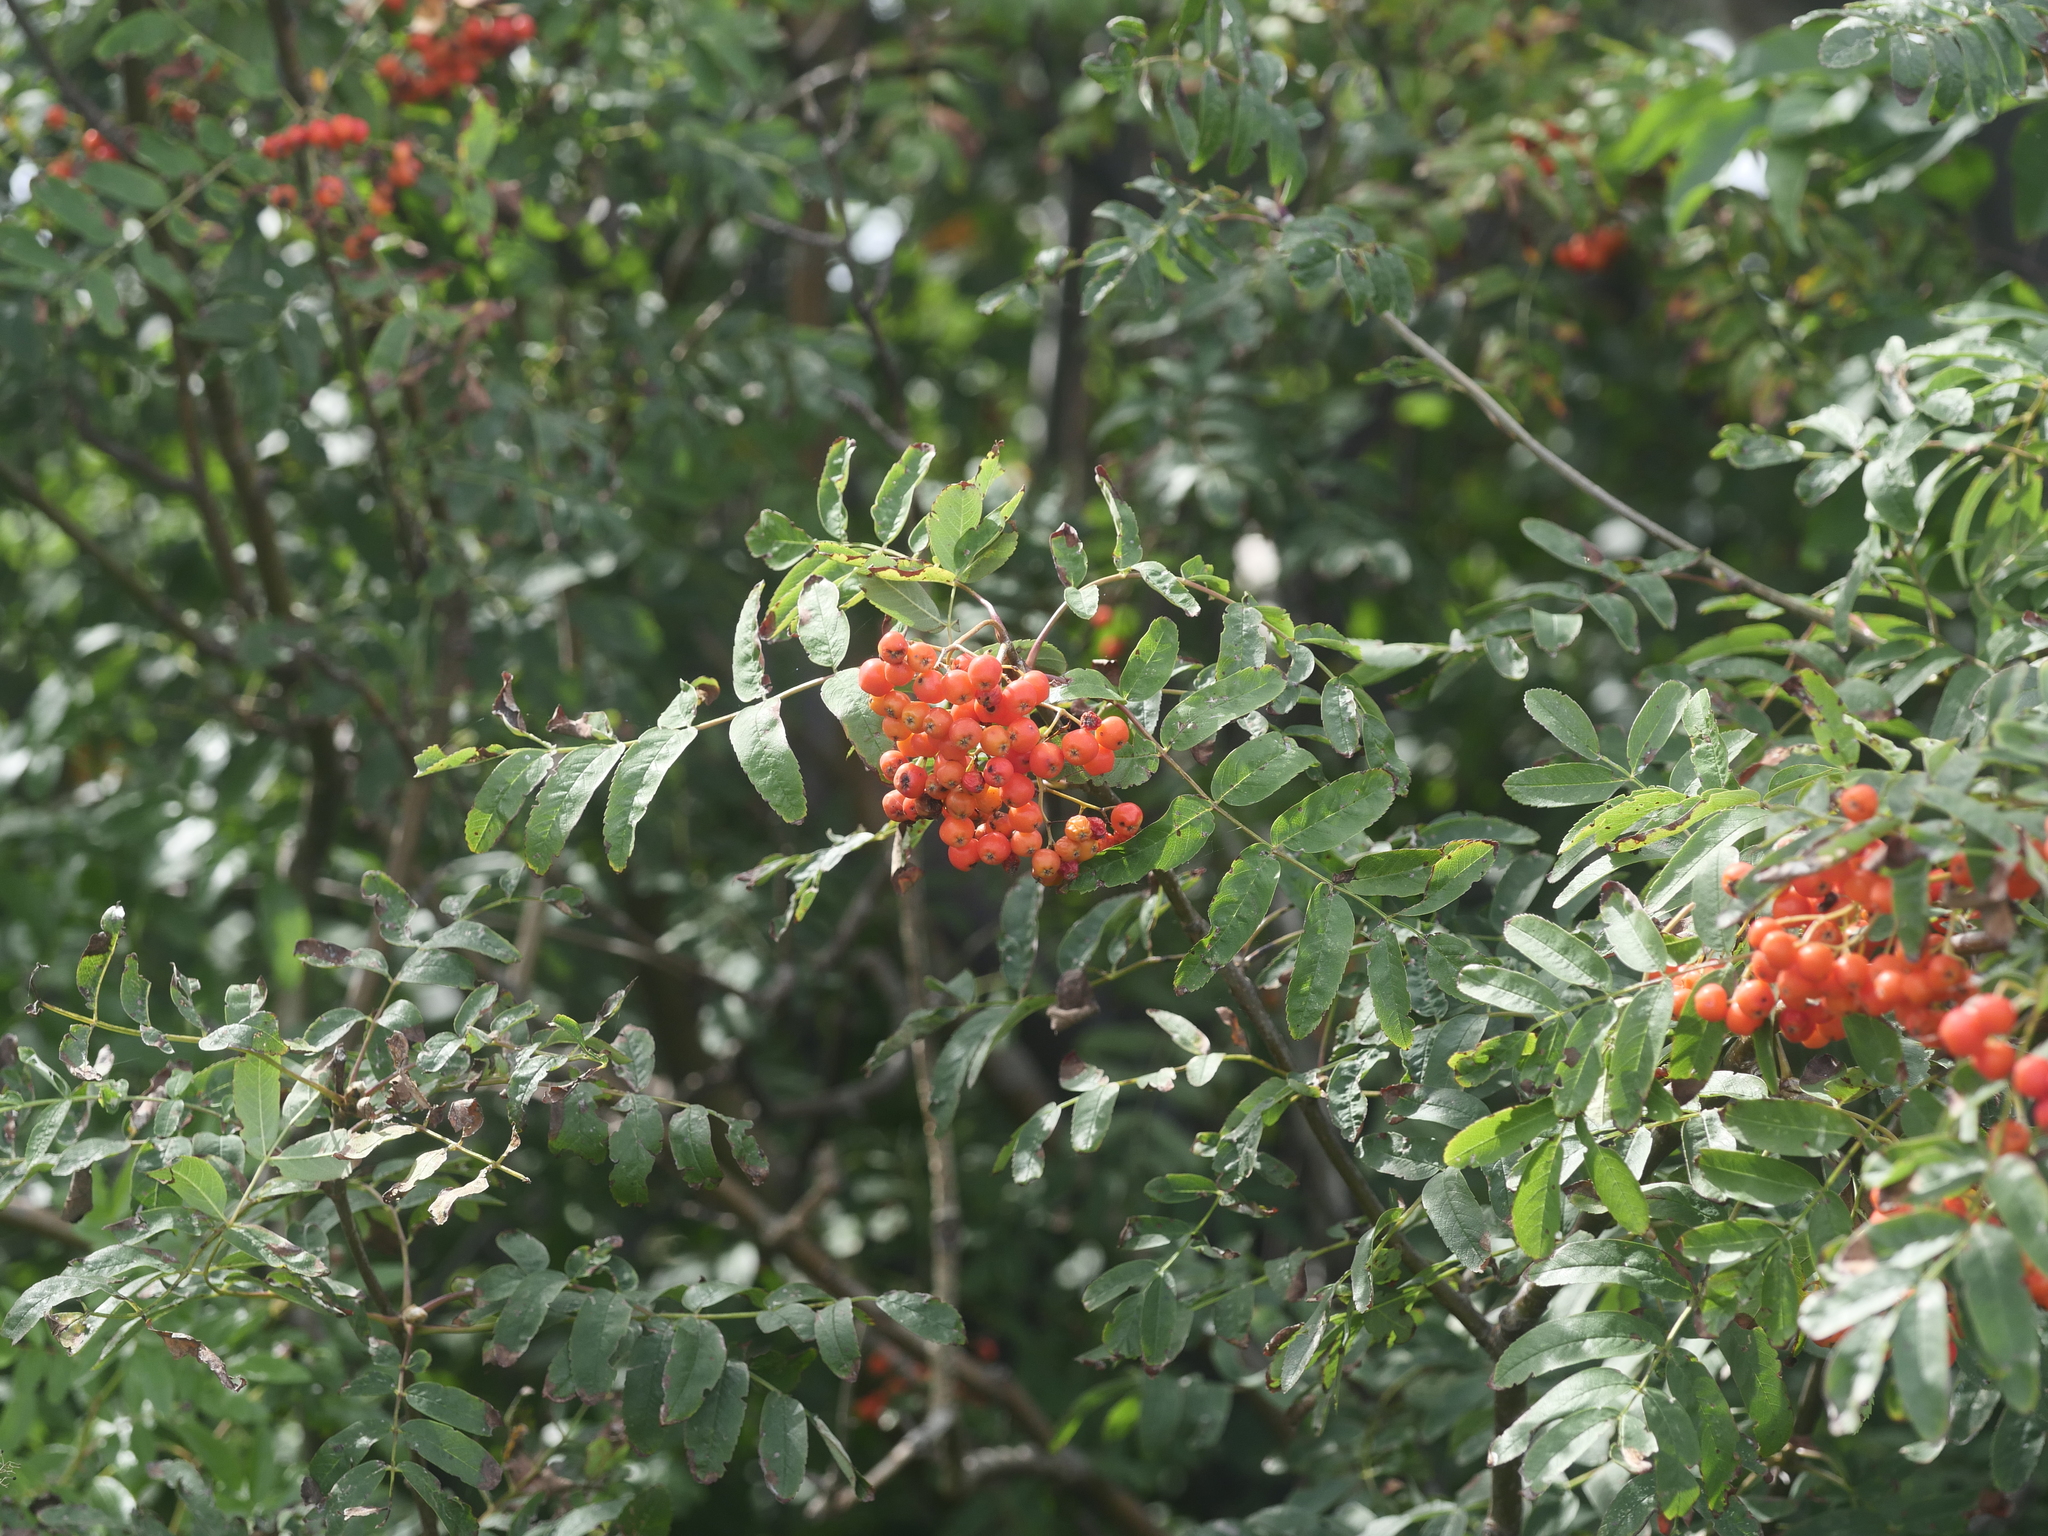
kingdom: Plantae
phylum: Tracheophyta
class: Magnoliopsida
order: Rosales
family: Rosaceae
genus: Sorbus
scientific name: Sorbus aucuparia
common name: Rowan
